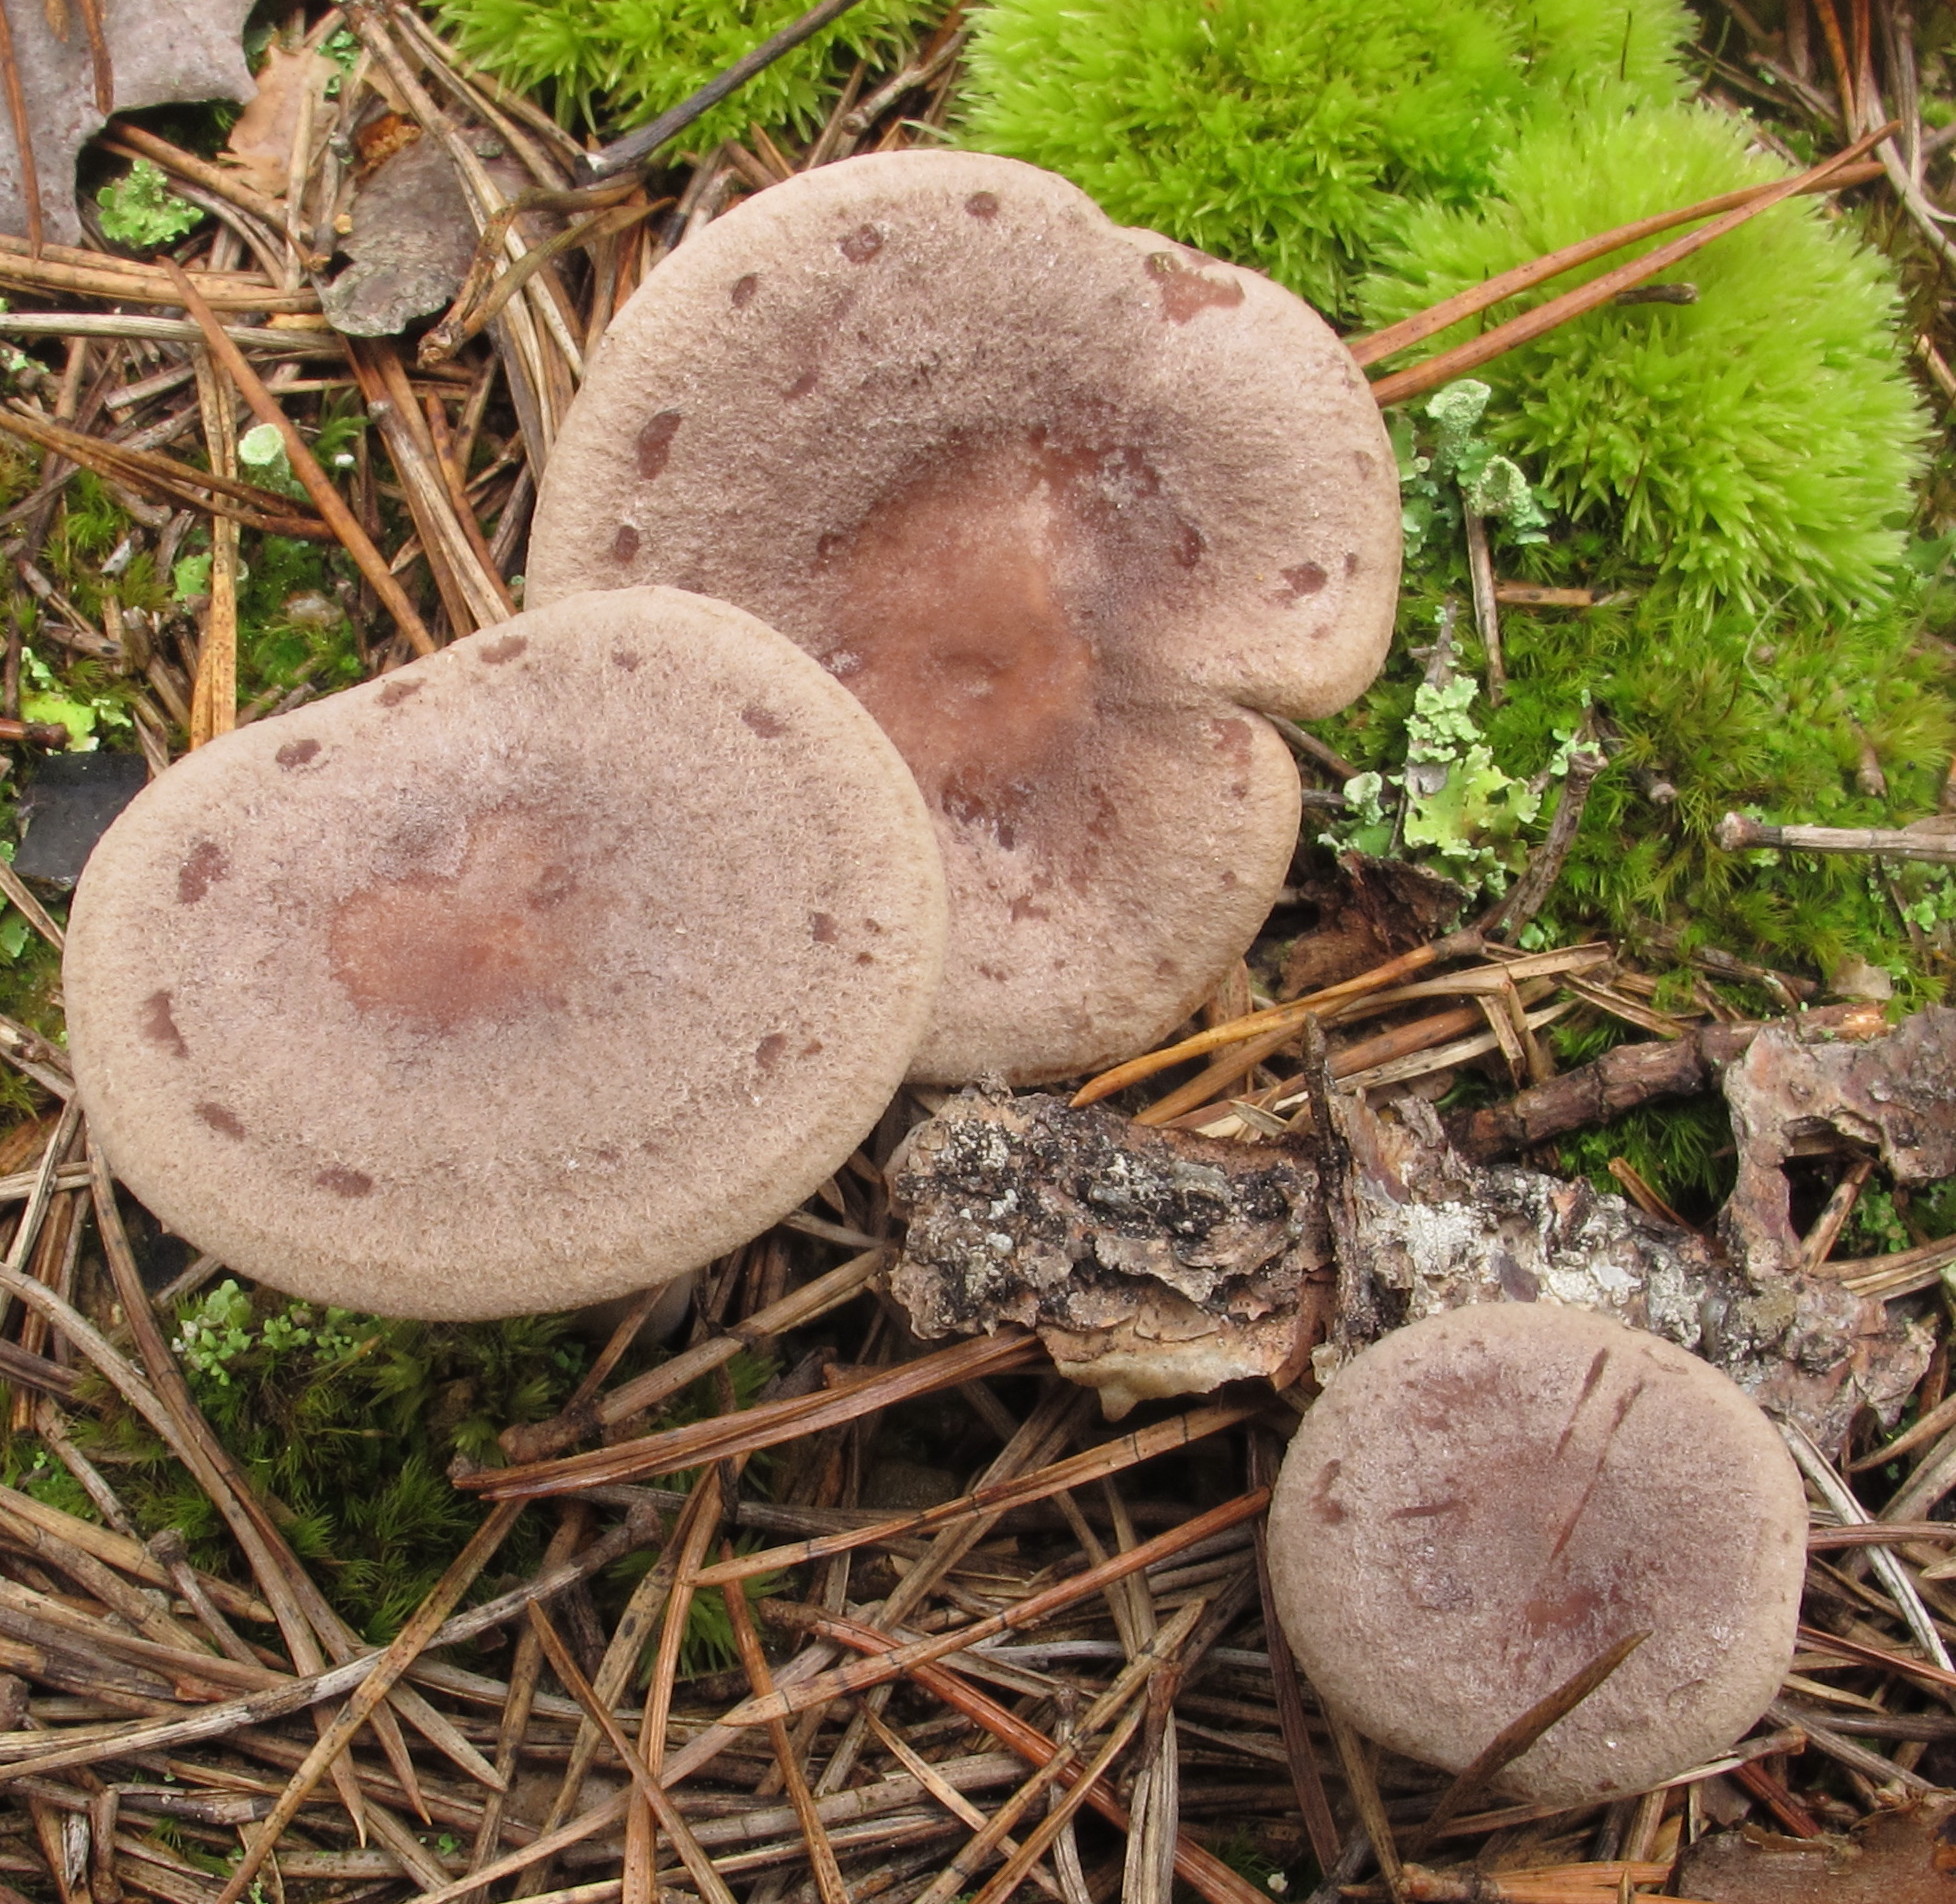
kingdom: Fungi
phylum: Basidiomycota
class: Agaricomycetes
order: Russulales
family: Russulaceae
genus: Lactarius
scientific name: Lactarius mammosus
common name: Pap milkcap
